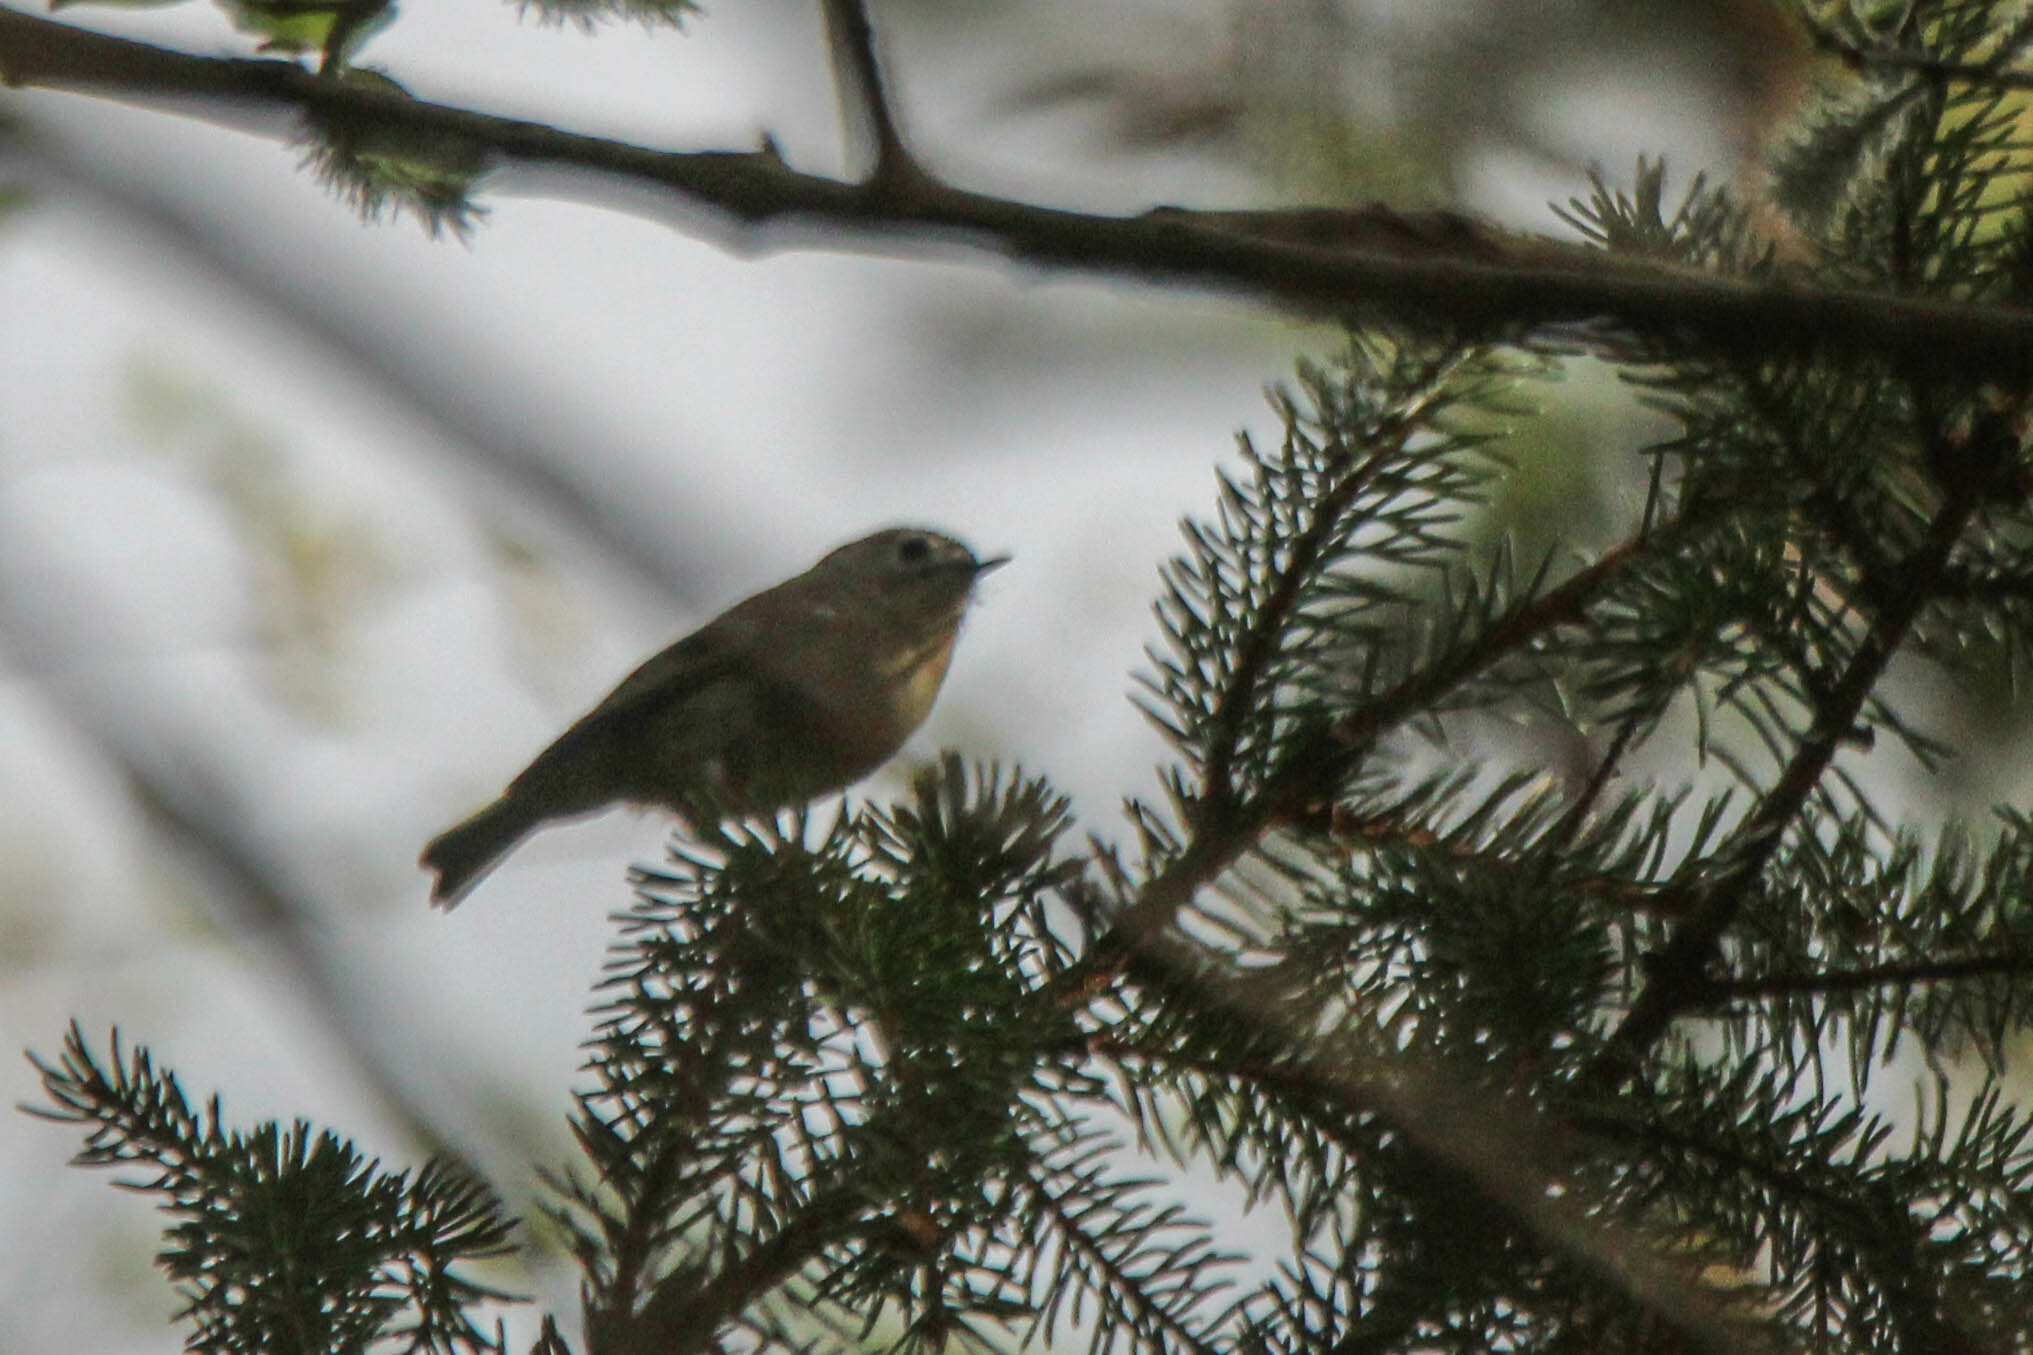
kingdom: Animalia
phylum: Chordata
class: Aves
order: Passeriformes
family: Regulidae
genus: Regulus
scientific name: Regulus regulus
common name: Goldcrest
